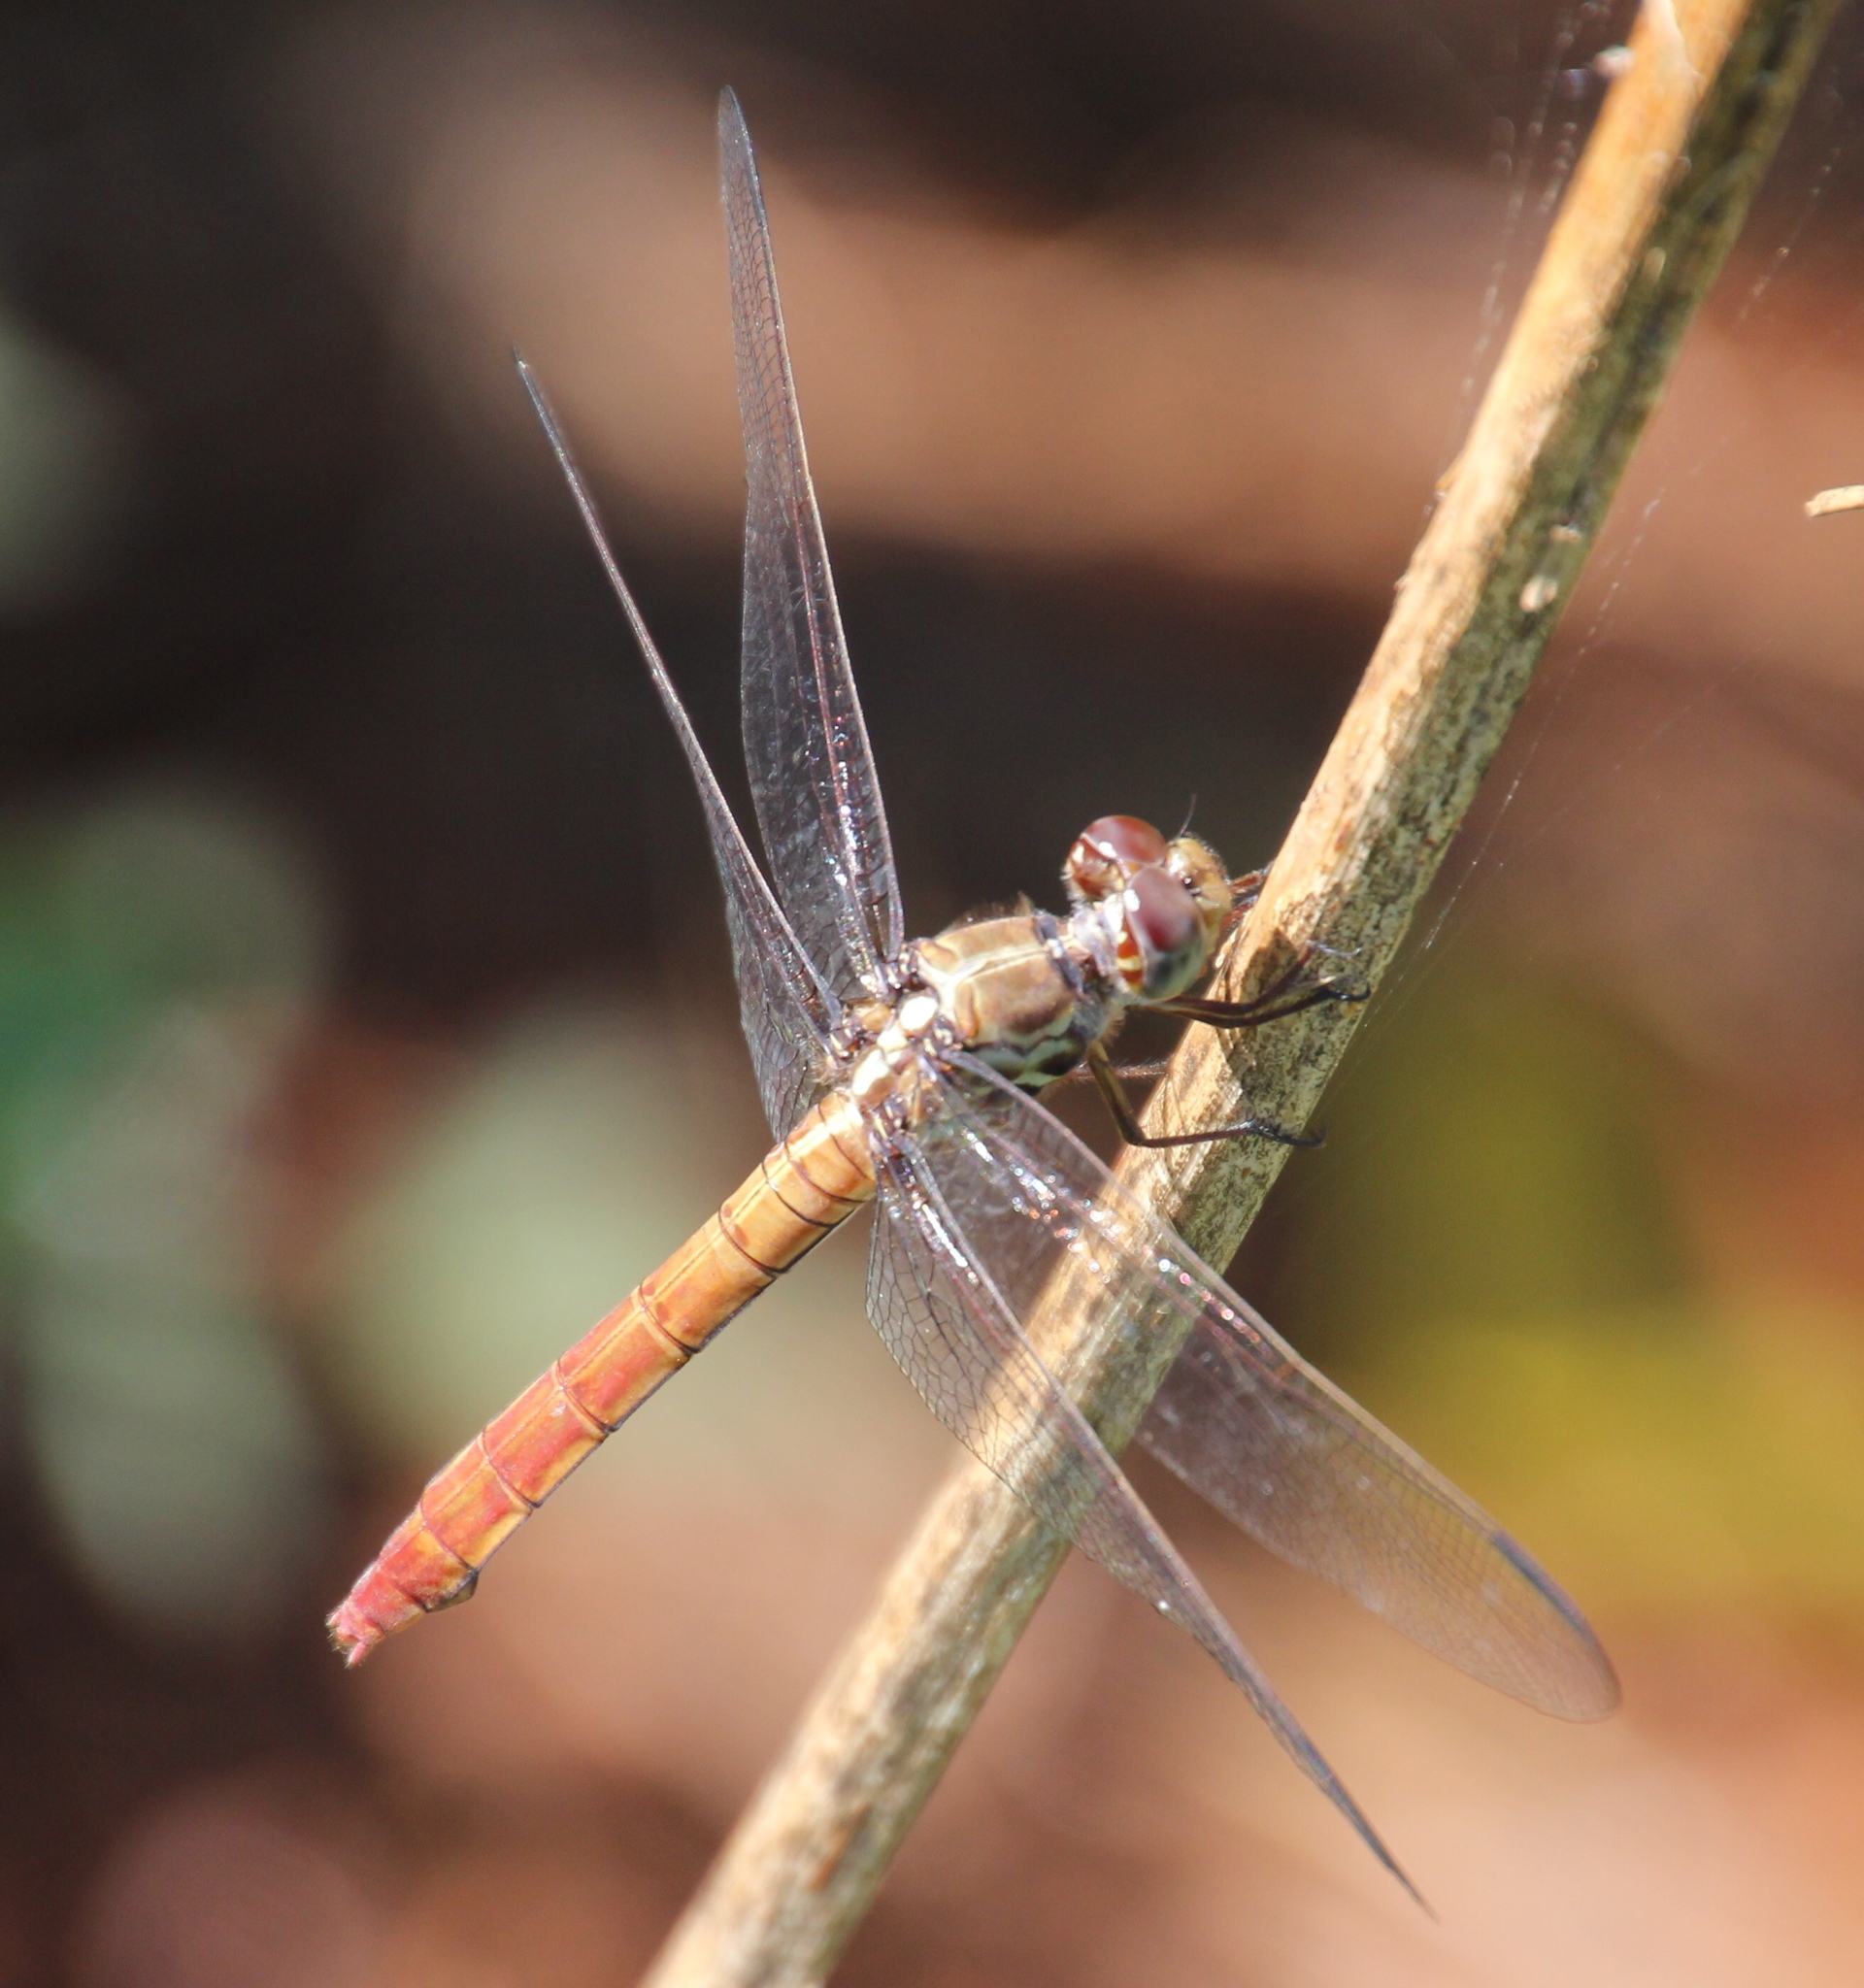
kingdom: Animalia
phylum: Arthropoda
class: Insecta
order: Odonata
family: Libellulidae
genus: Orthemis
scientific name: Orthemis ferruginea
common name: Roseate skimmer
